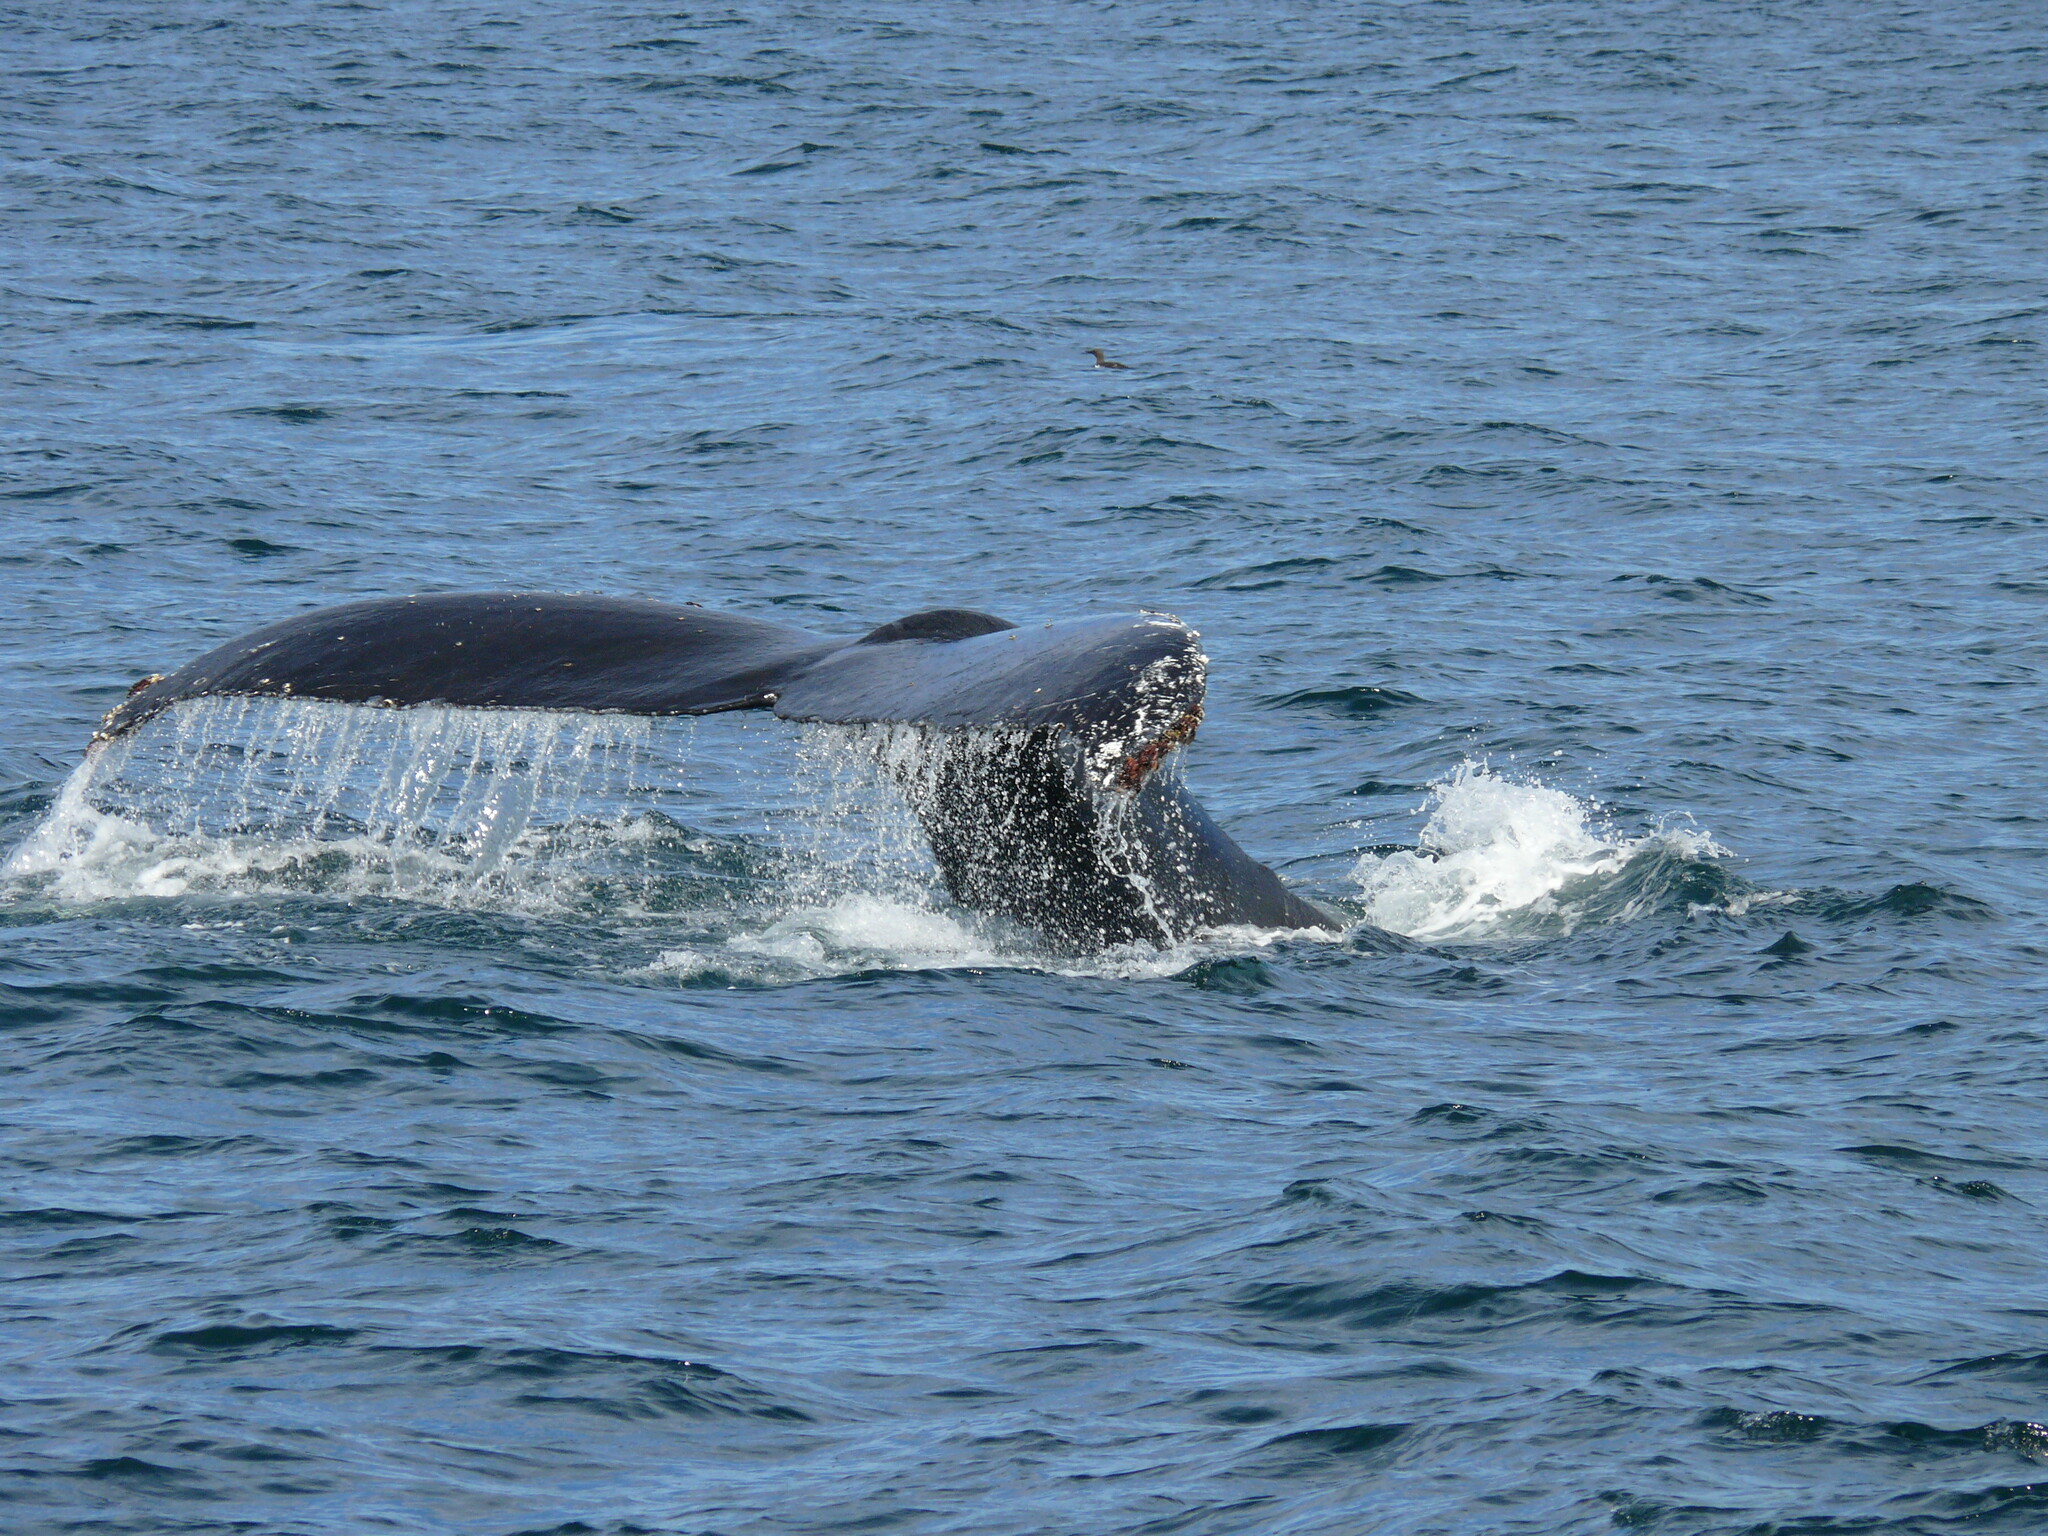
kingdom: Animalia
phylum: Chordata
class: Mammalia
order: Cetacea
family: Balaenopteridae
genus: Megaptera
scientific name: Megaptera novaeangliae
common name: Humpback whale
